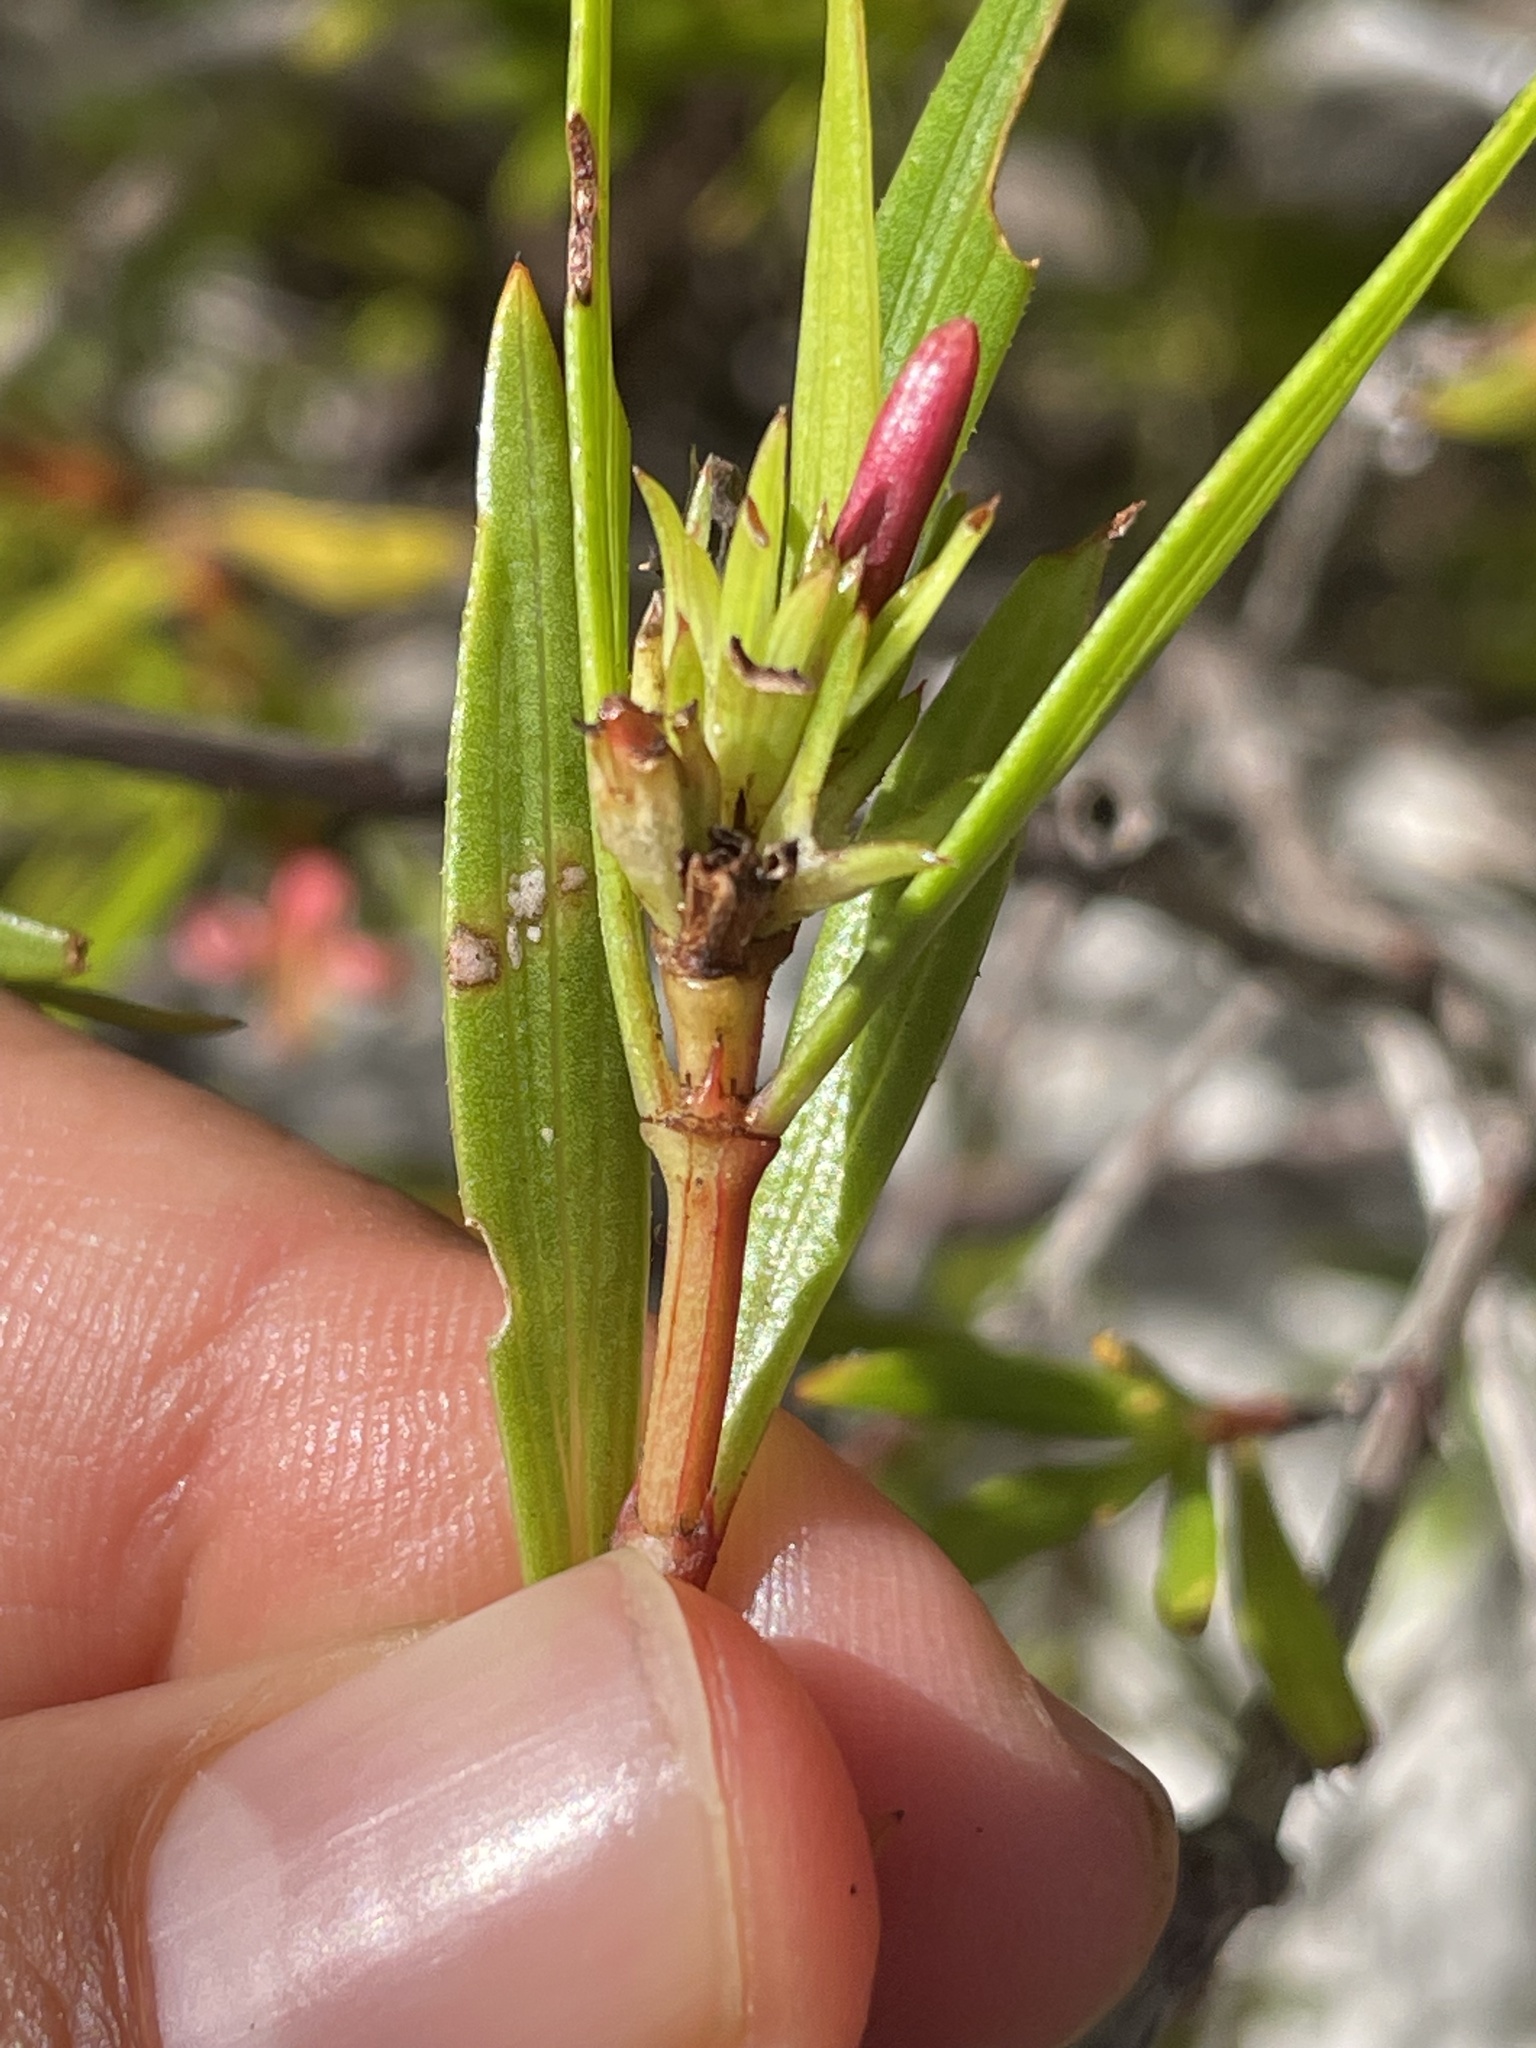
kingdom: Plantae
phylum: Tracheophyta
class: Magnoliopsida
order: Gentianales
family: Rubiaceae
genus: Ernodea
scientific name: Ernodea littoralis
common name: Beach creeper
